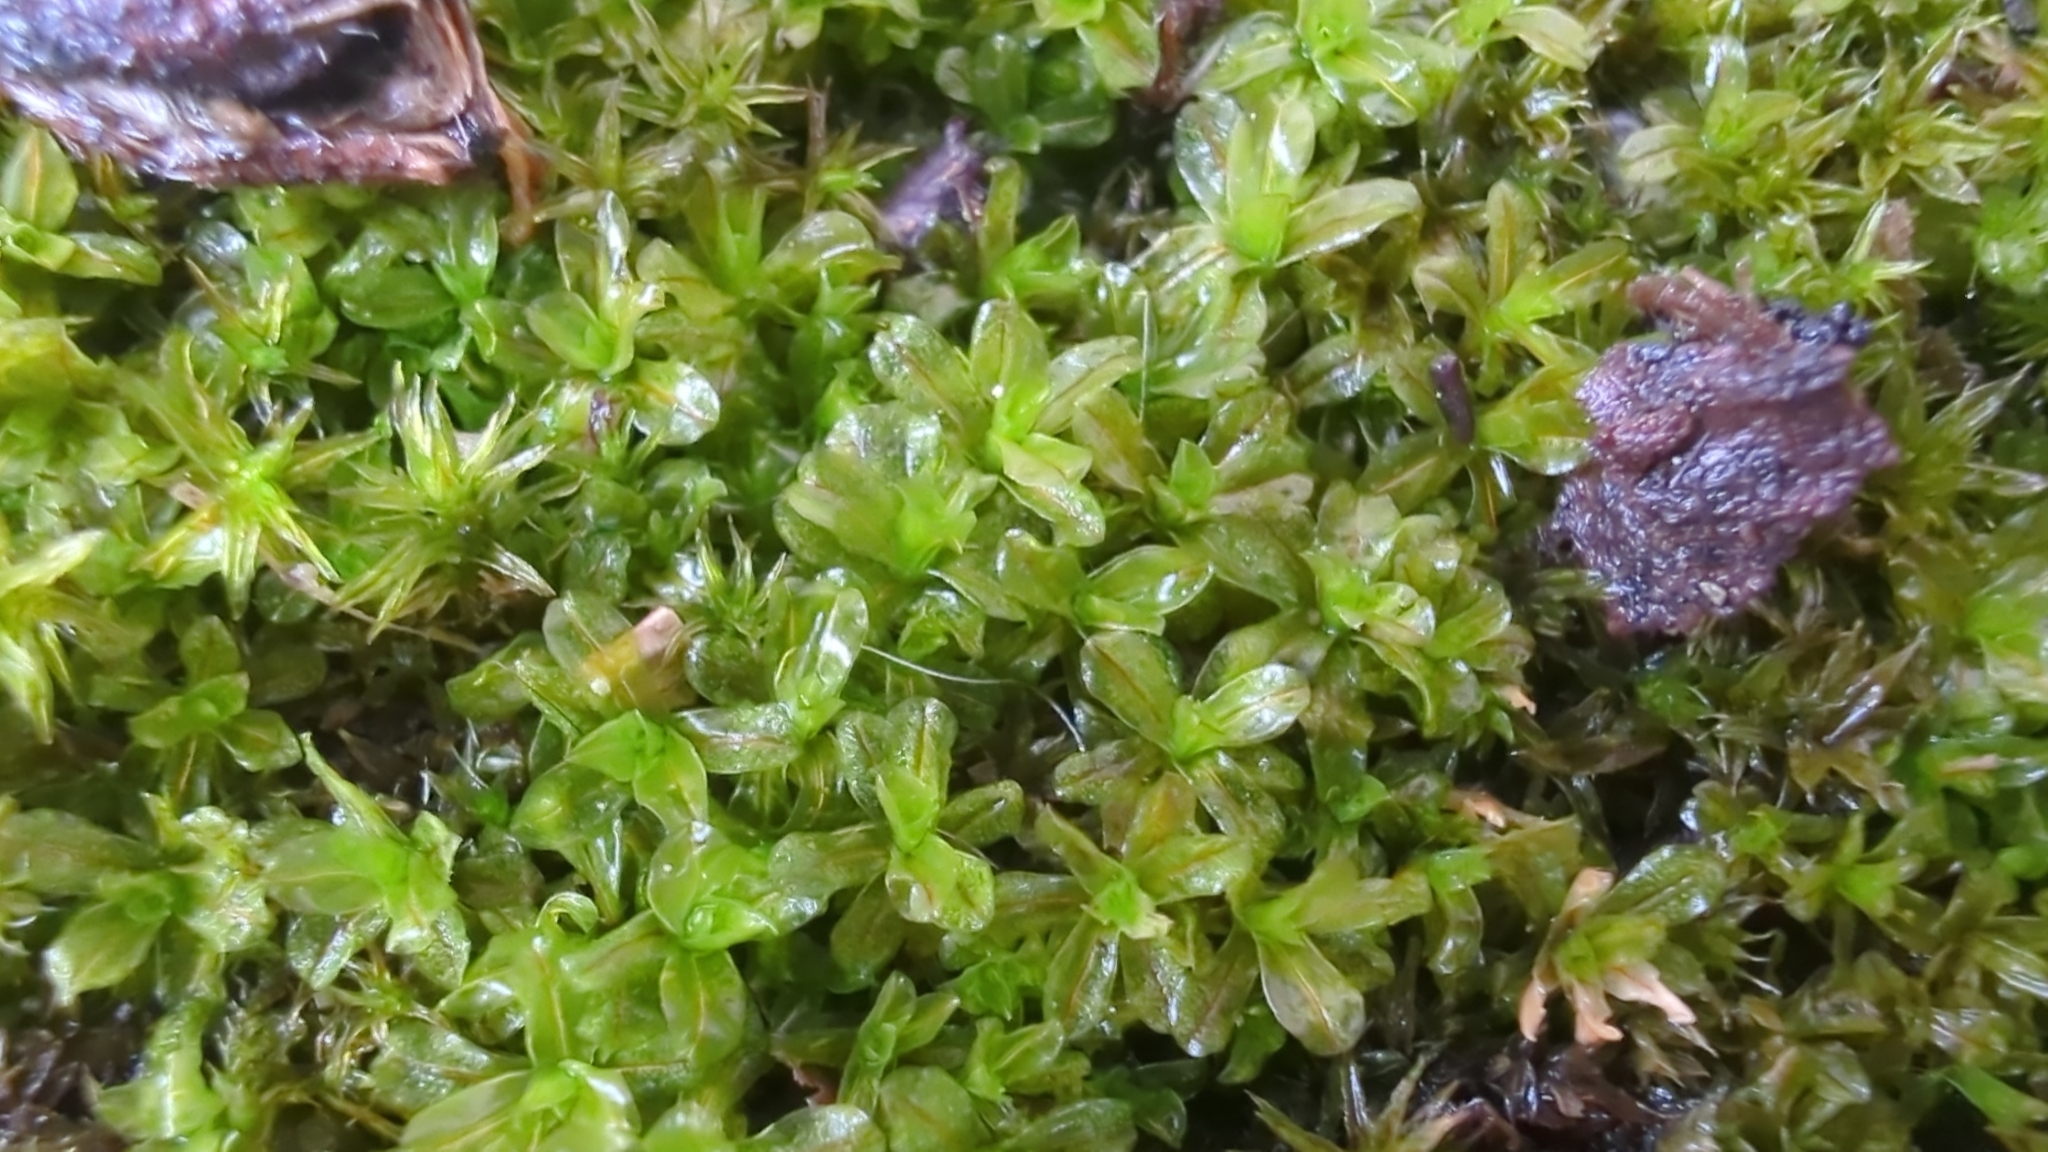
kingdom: Plantae
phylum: Bryophyta
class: Bryopsida
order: Bryales
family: Mniaceae
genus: Rhizomnium
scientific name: Rhizomnium glabrescens
